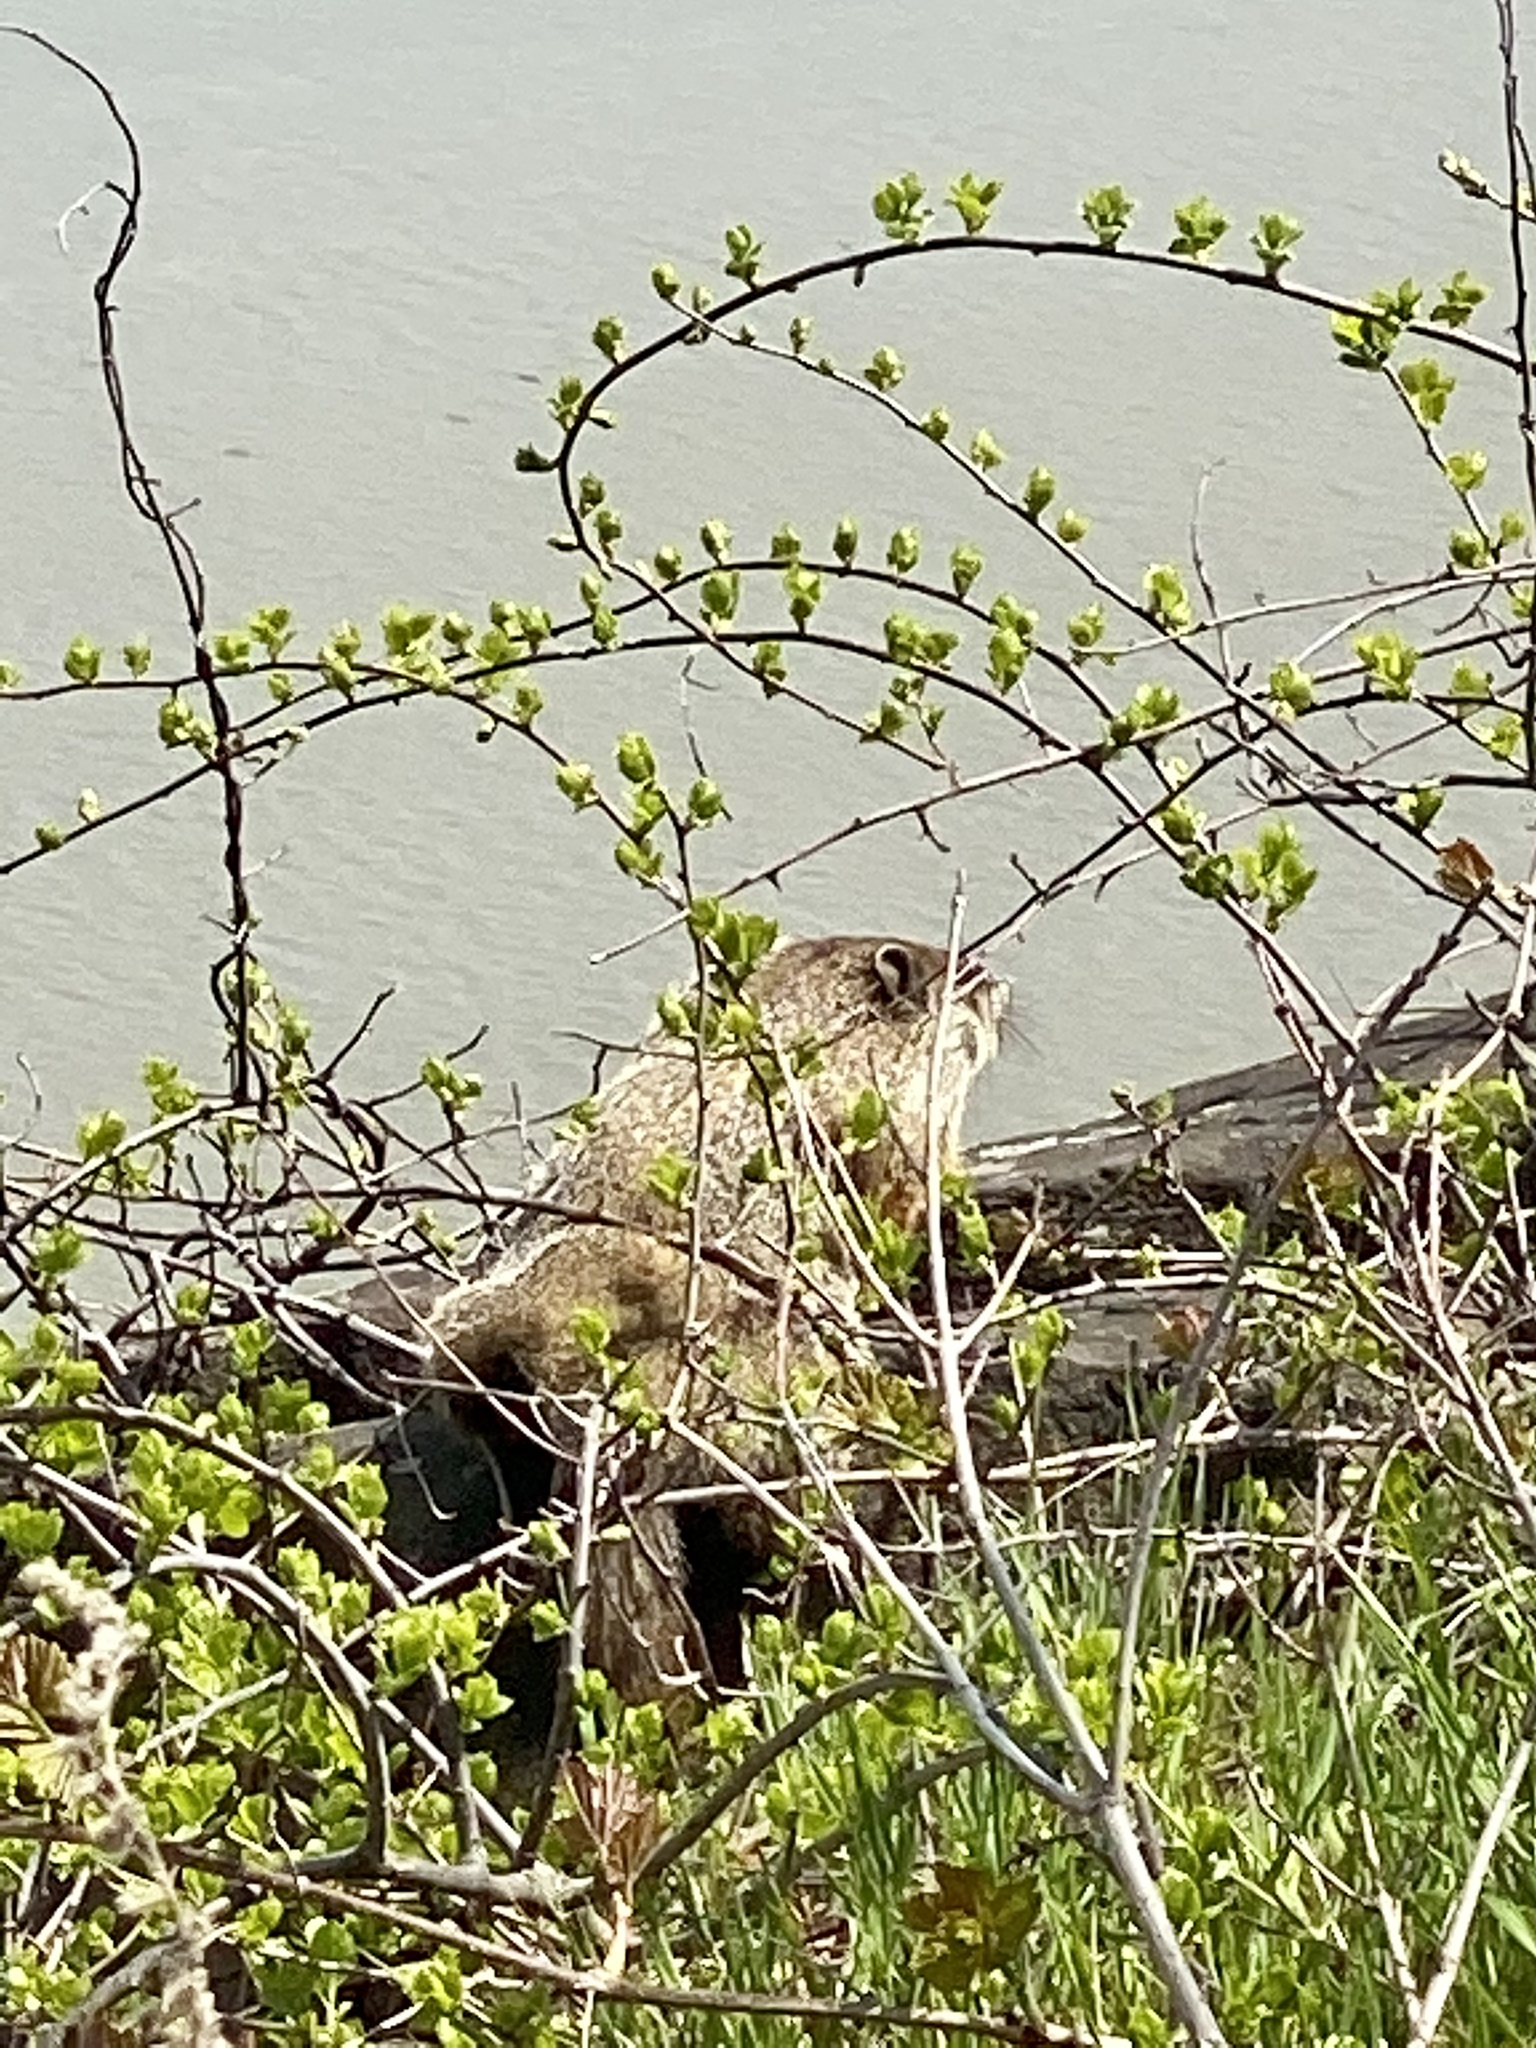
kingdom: Animalia
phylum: Chordata
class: Mammalia
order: Rodentia
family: Sciuridae
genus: Marmota
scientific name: Marmota monax
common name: Groundhog
